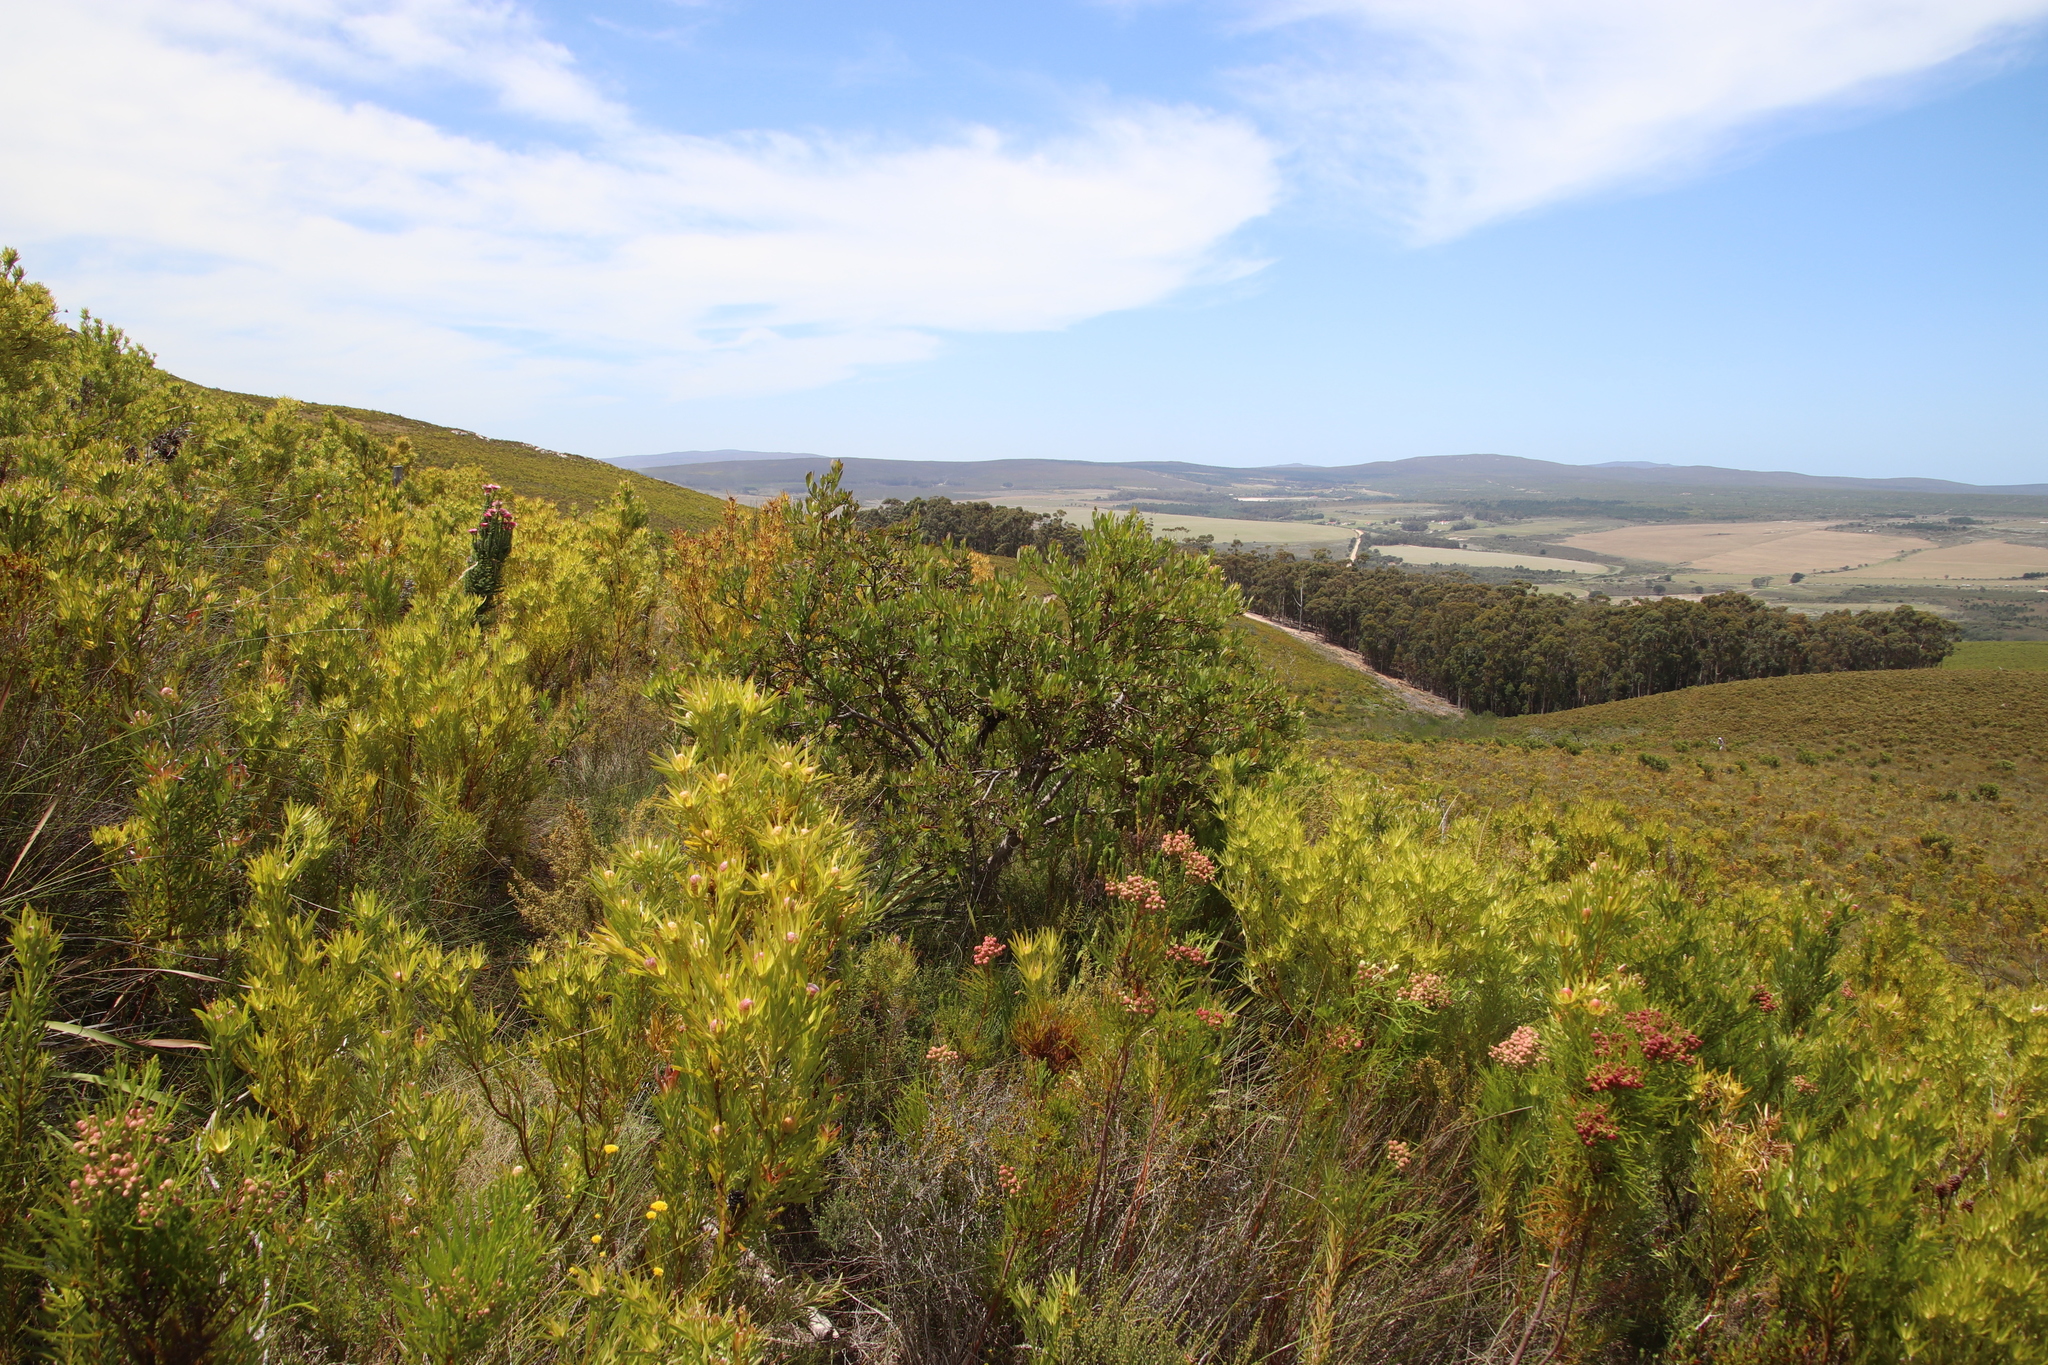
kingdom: Plantae
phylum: Tracheophyta
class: Magnoliopsida
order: Asterales
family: Asteraceae
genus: Osteospermum
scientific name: Osteospermum moniliferum
